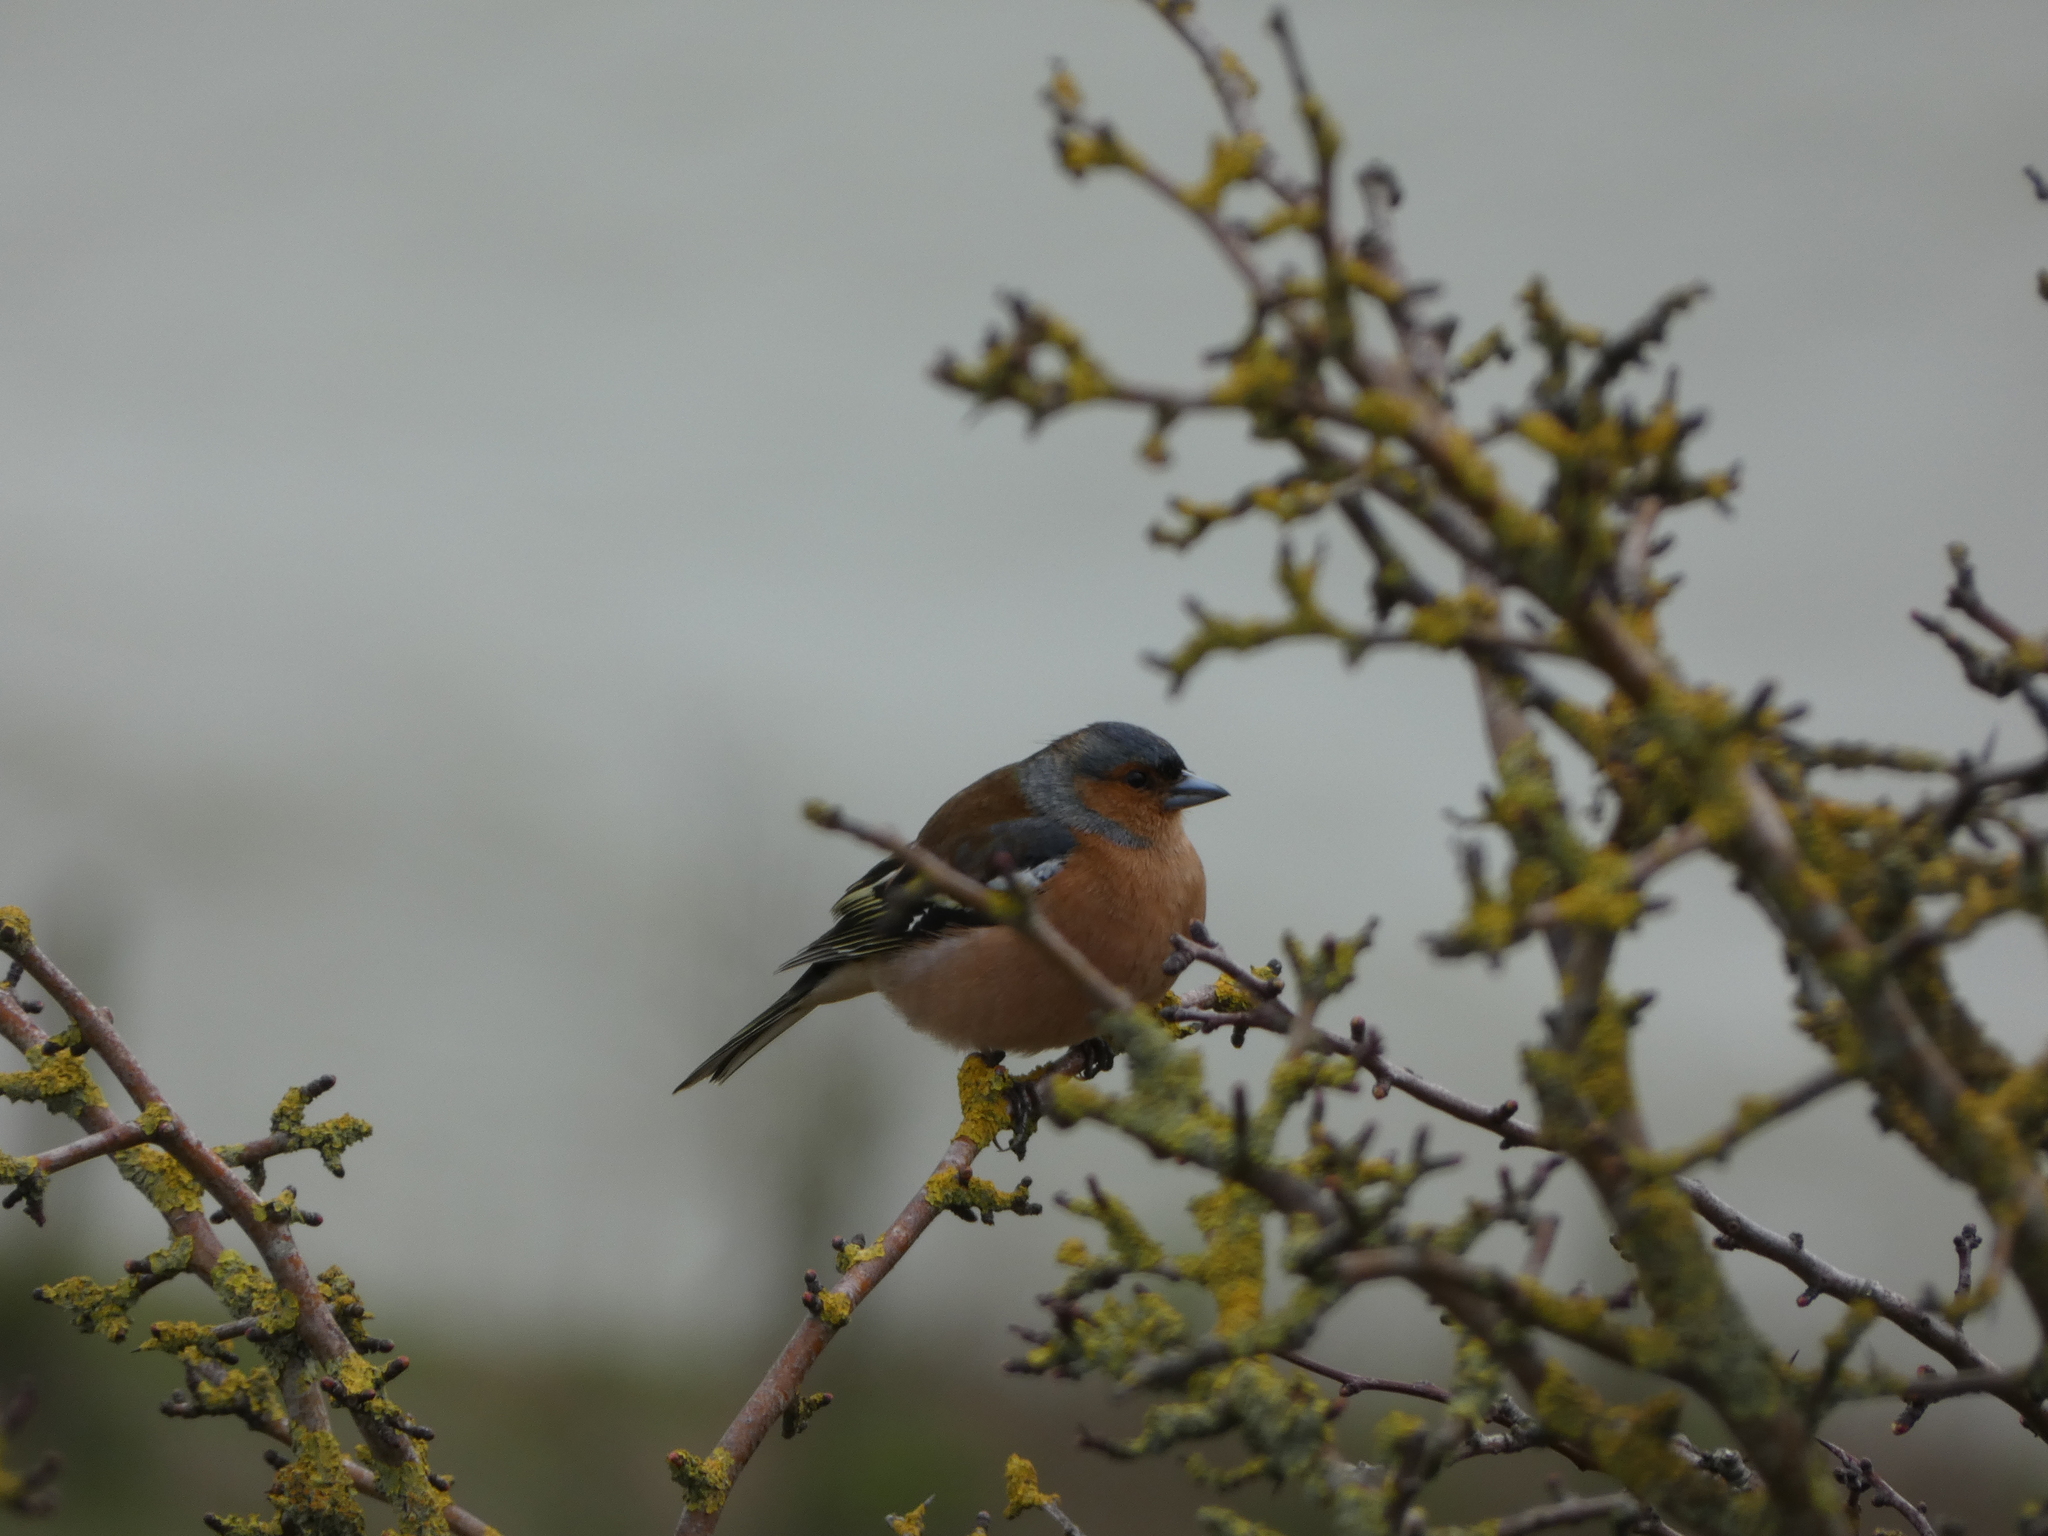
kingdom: Animalia
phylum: Chordata
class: Aves
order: Passeriformes
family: Fringillidae
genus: Fringilla
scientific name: Fringilla coelebs
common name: Common chaffinch
